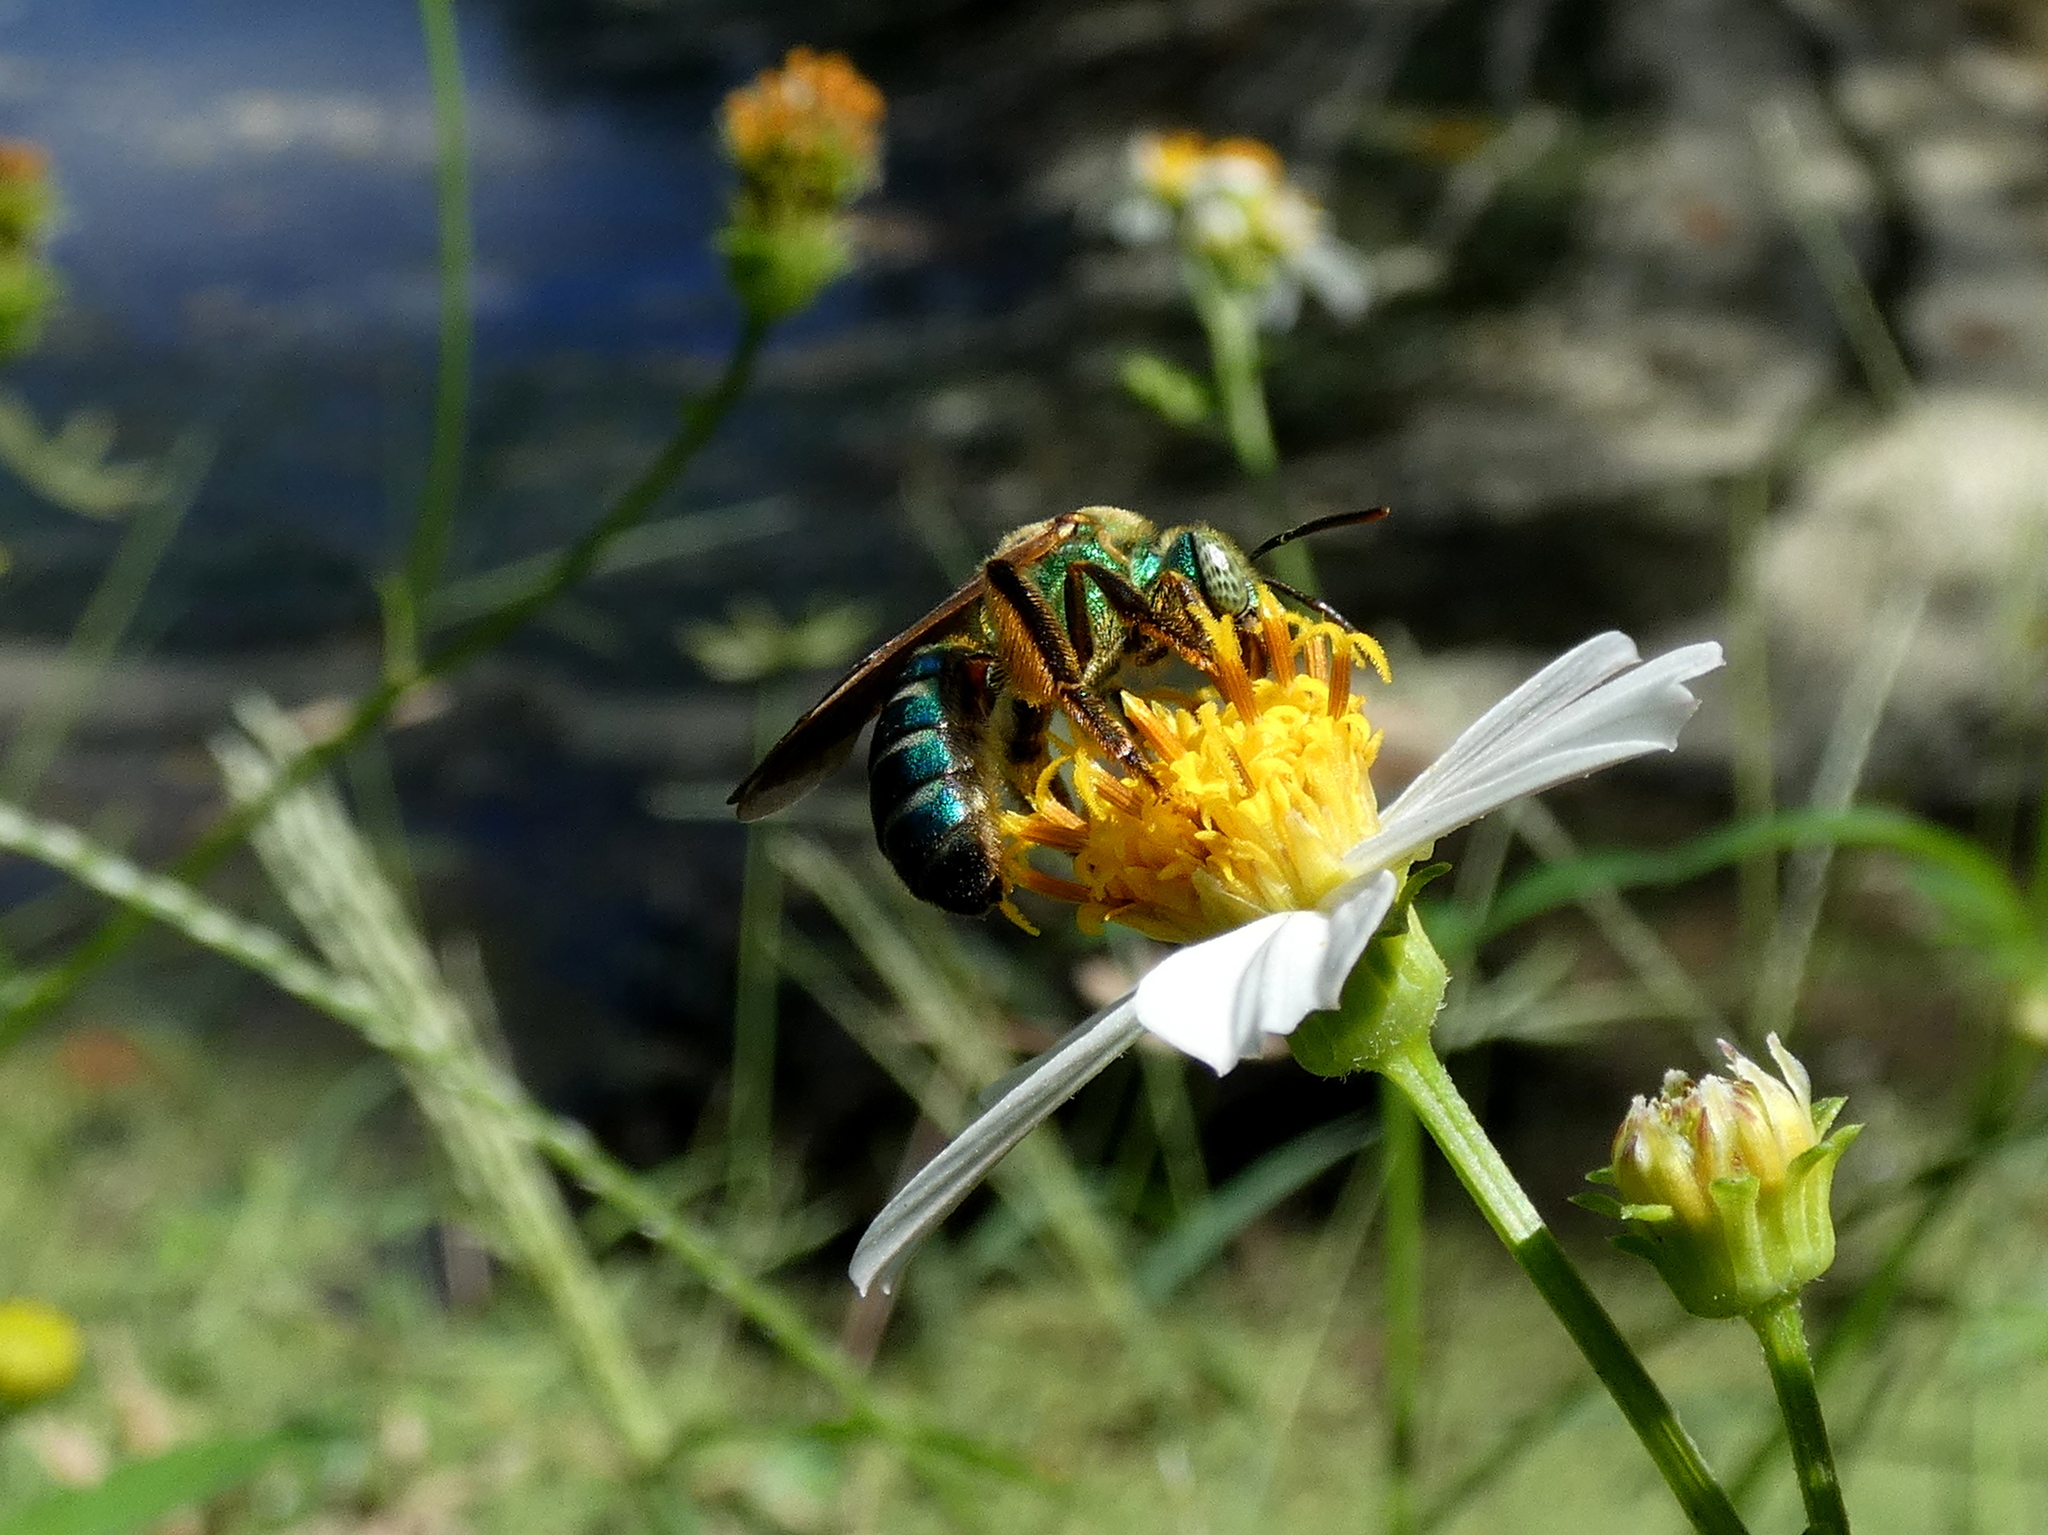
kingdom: Animalia
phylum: Arthropoda
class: Insecta
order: Hymenoptera
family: Halictidae
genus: Agapostemon
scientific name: Agapostemon splendens
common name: Brown-winged striped sweat bee
